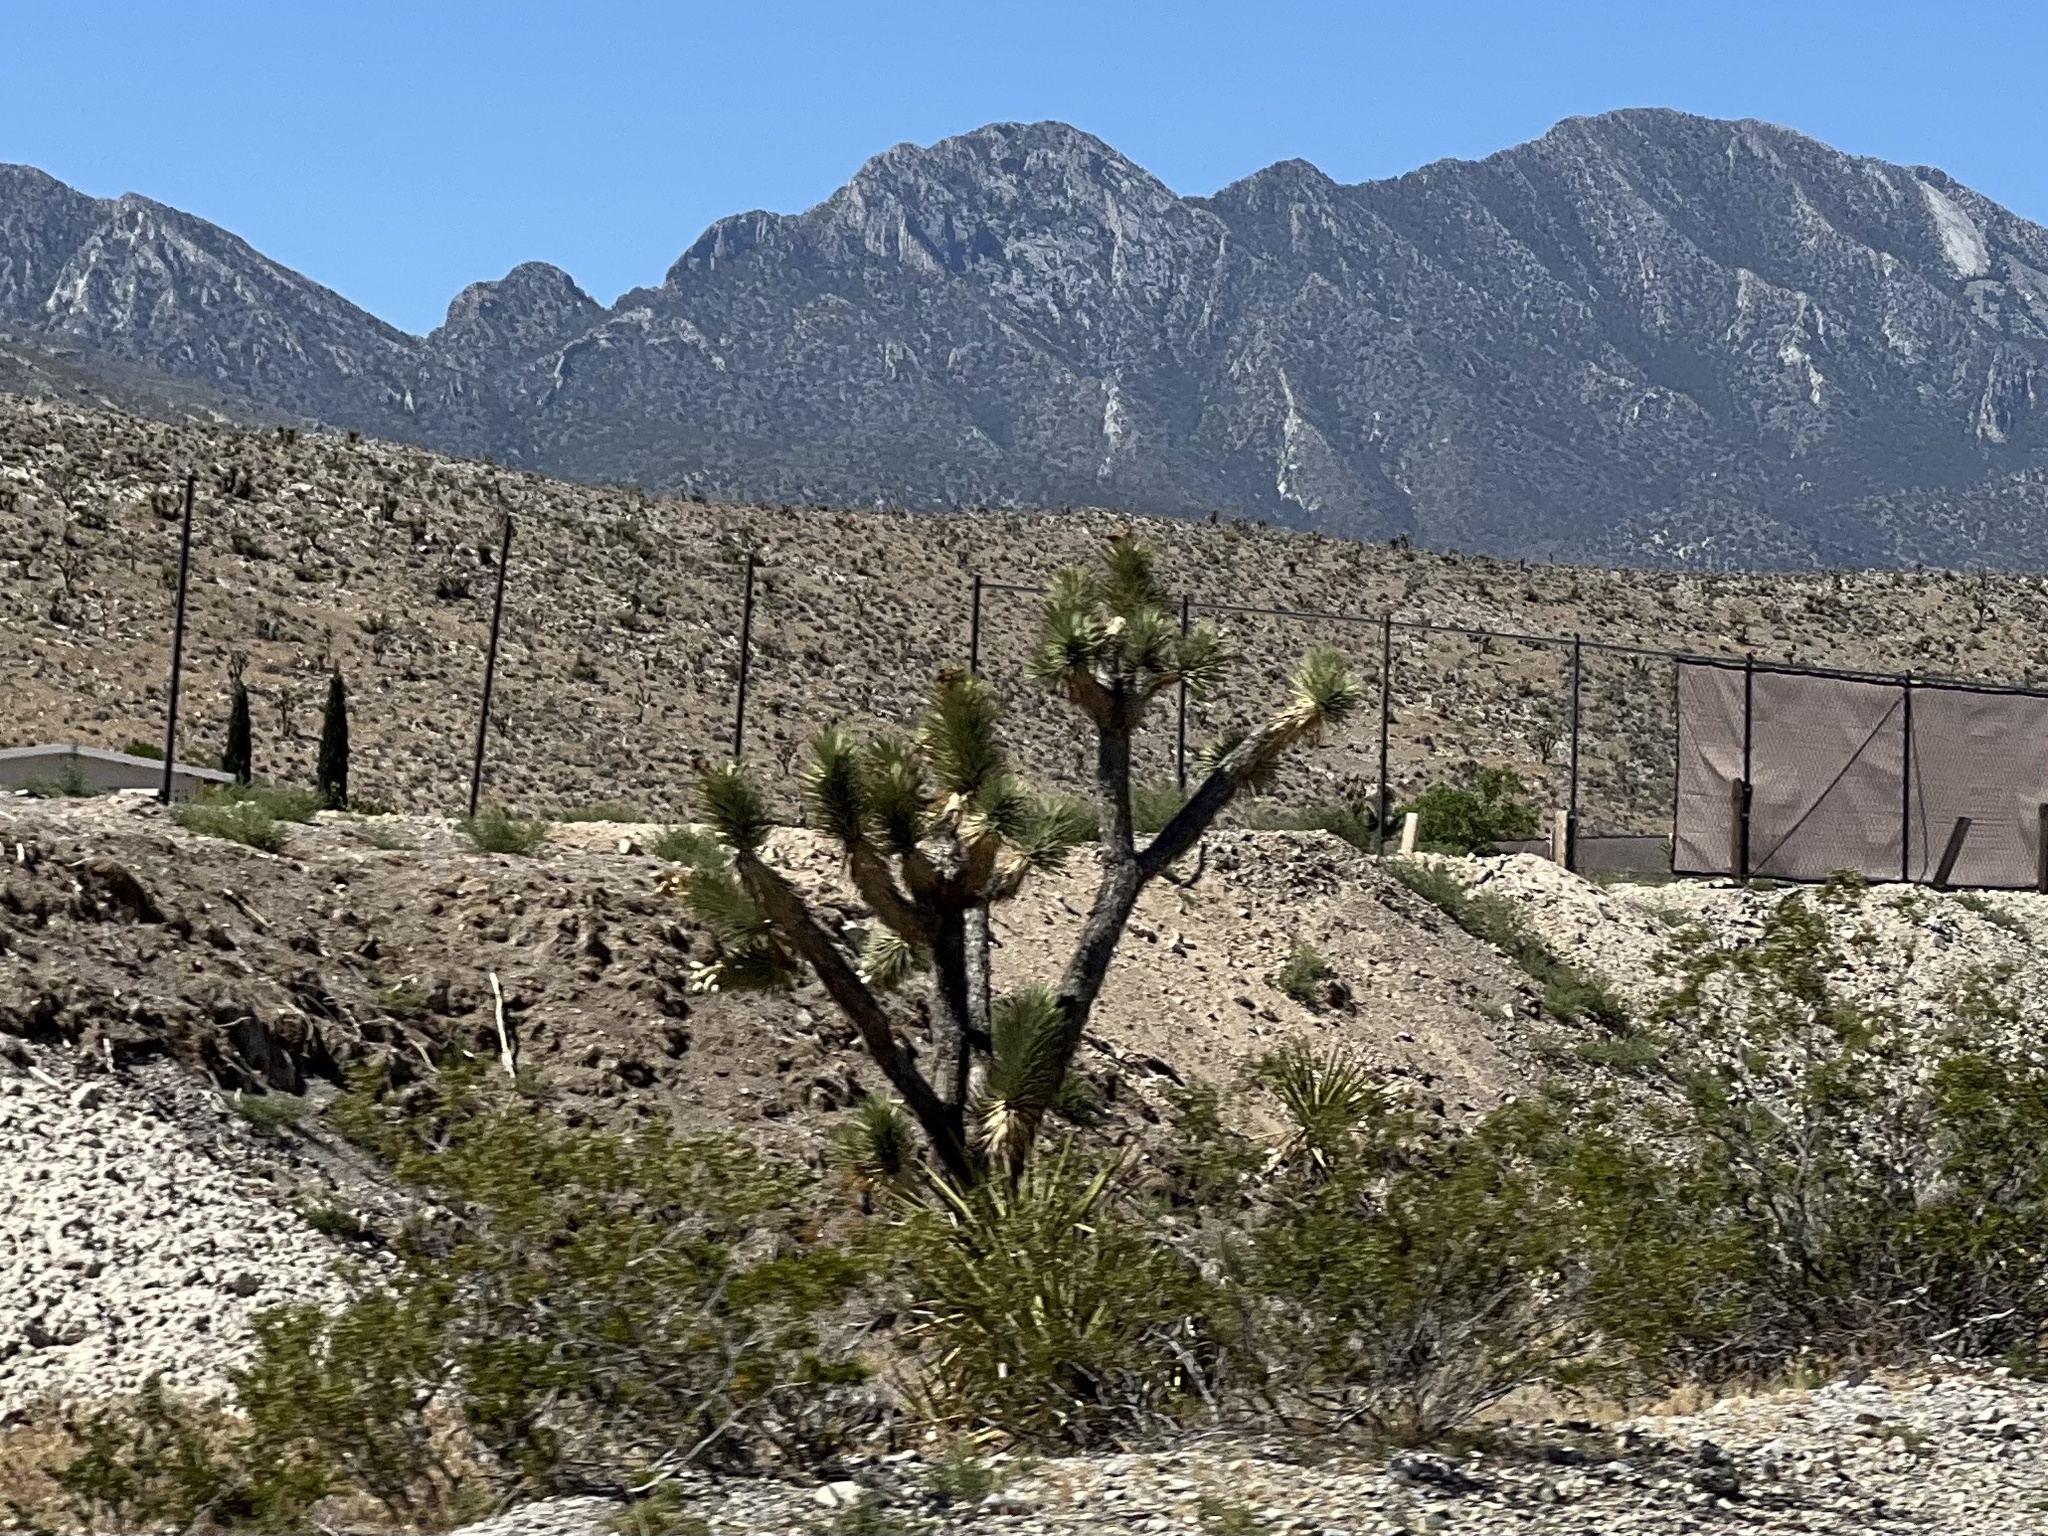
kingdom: Plantae
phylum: Tracheophyta
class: Liliopsida
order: Asparagales
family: Asparagaceae
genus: Yucca
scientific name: Yucca brevifolia
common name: Joshua tree
